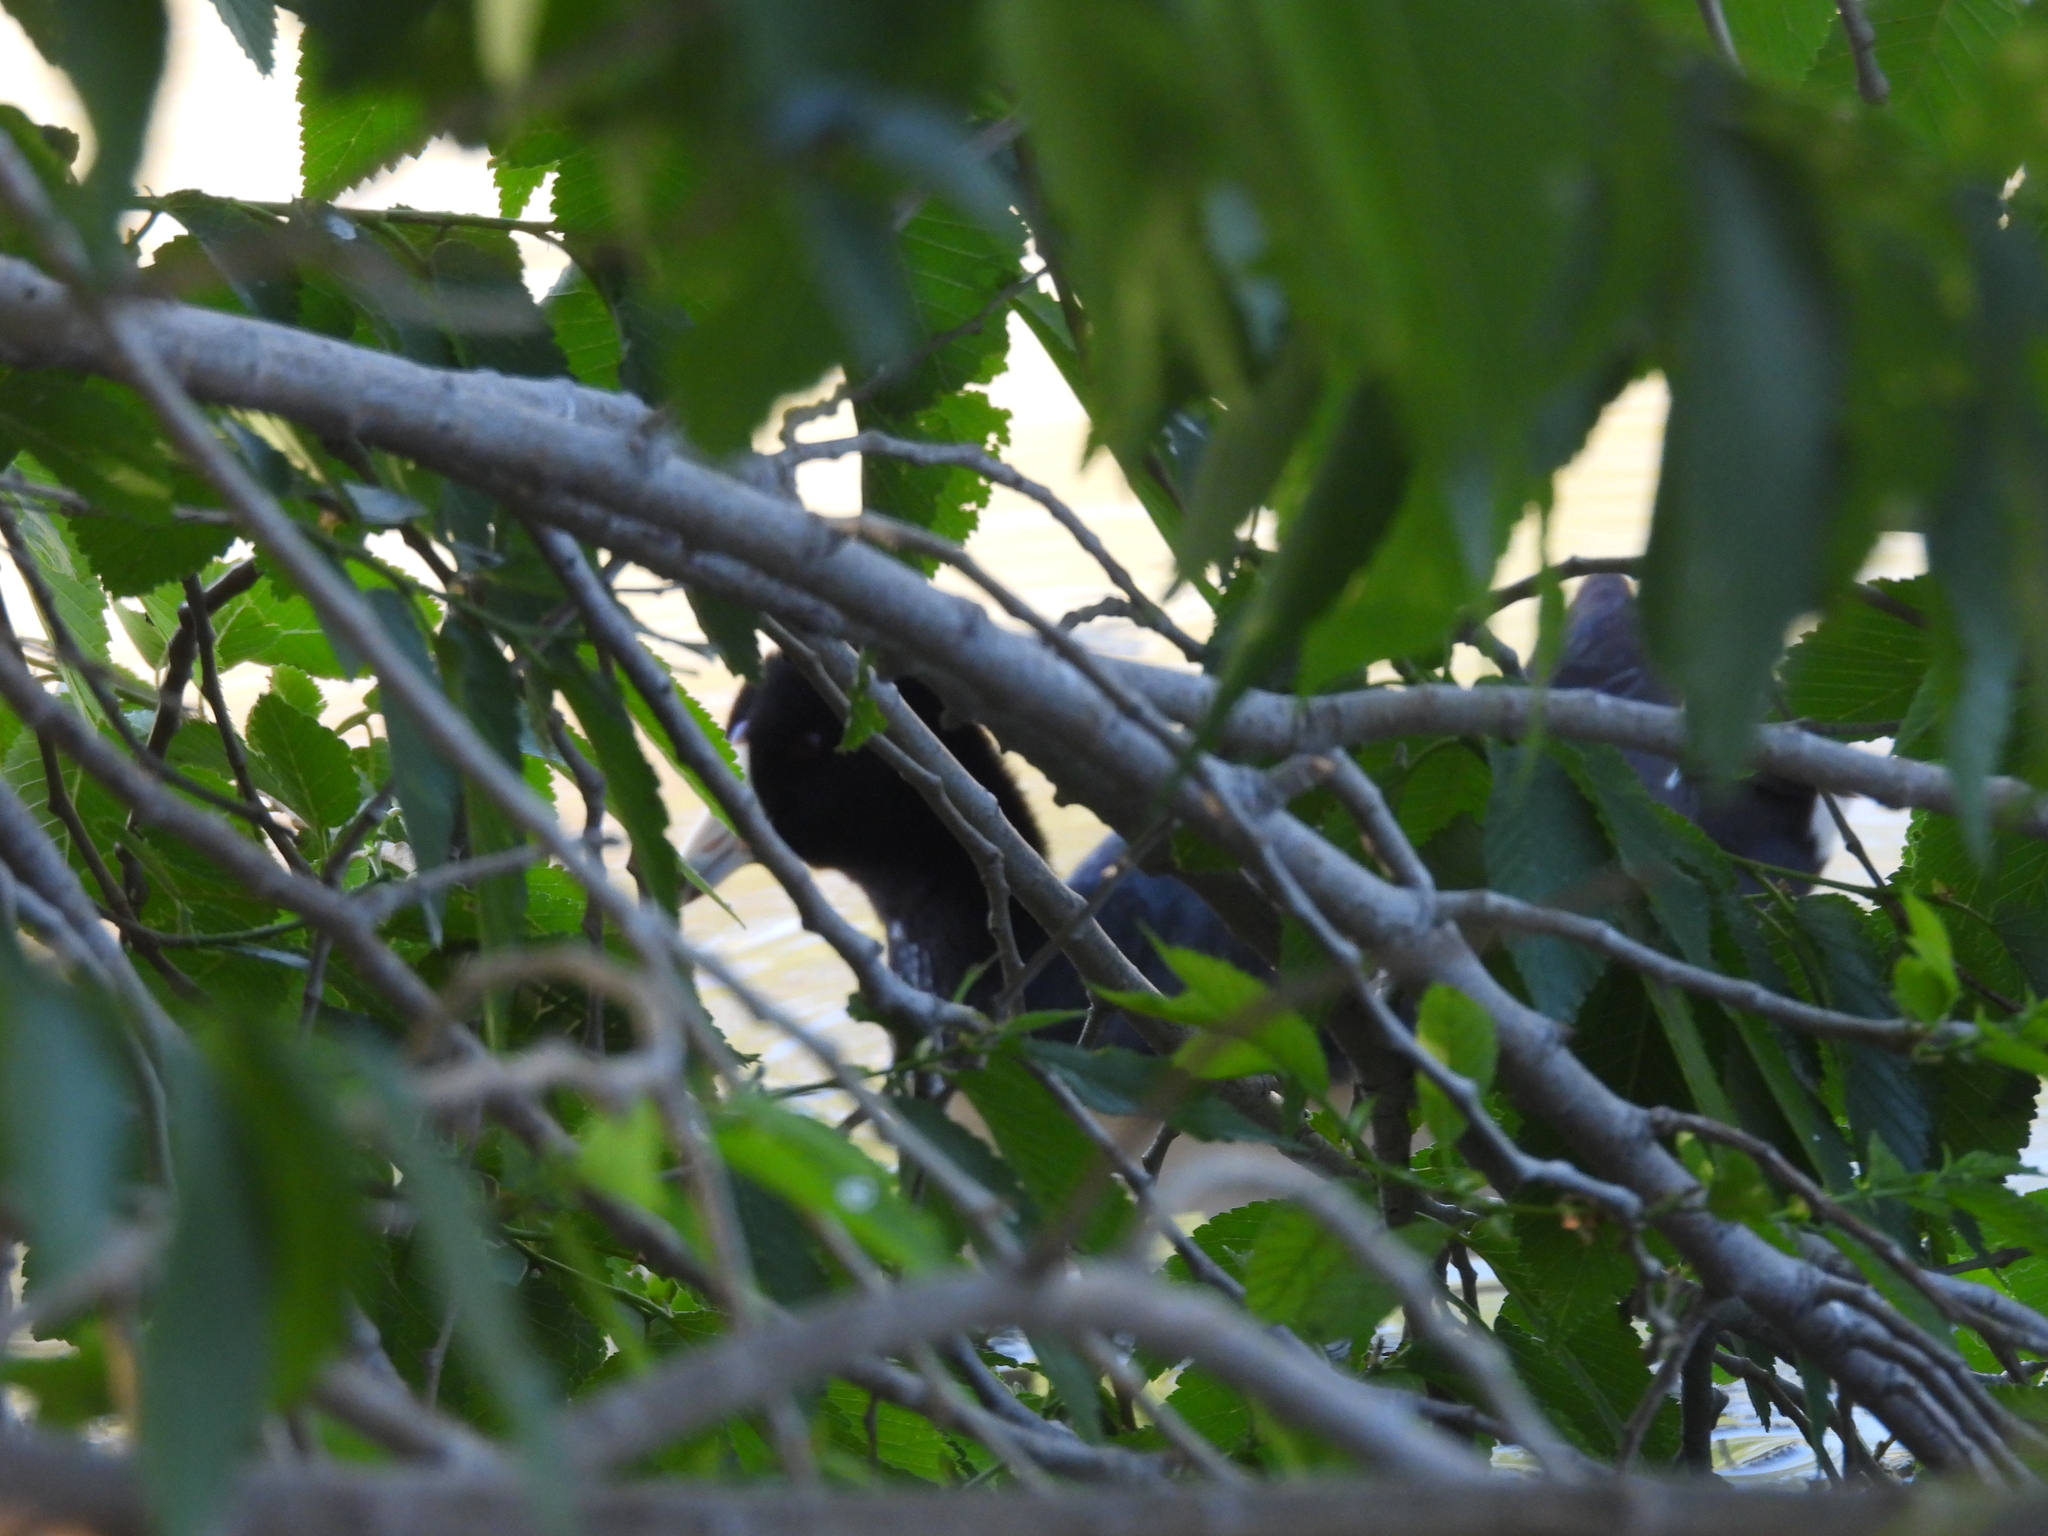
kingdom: Animalia
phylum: Chordata
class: Aves
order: Gruiformes
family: Rallidae
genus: Fulica
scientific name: Fulica americana
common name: American coot
